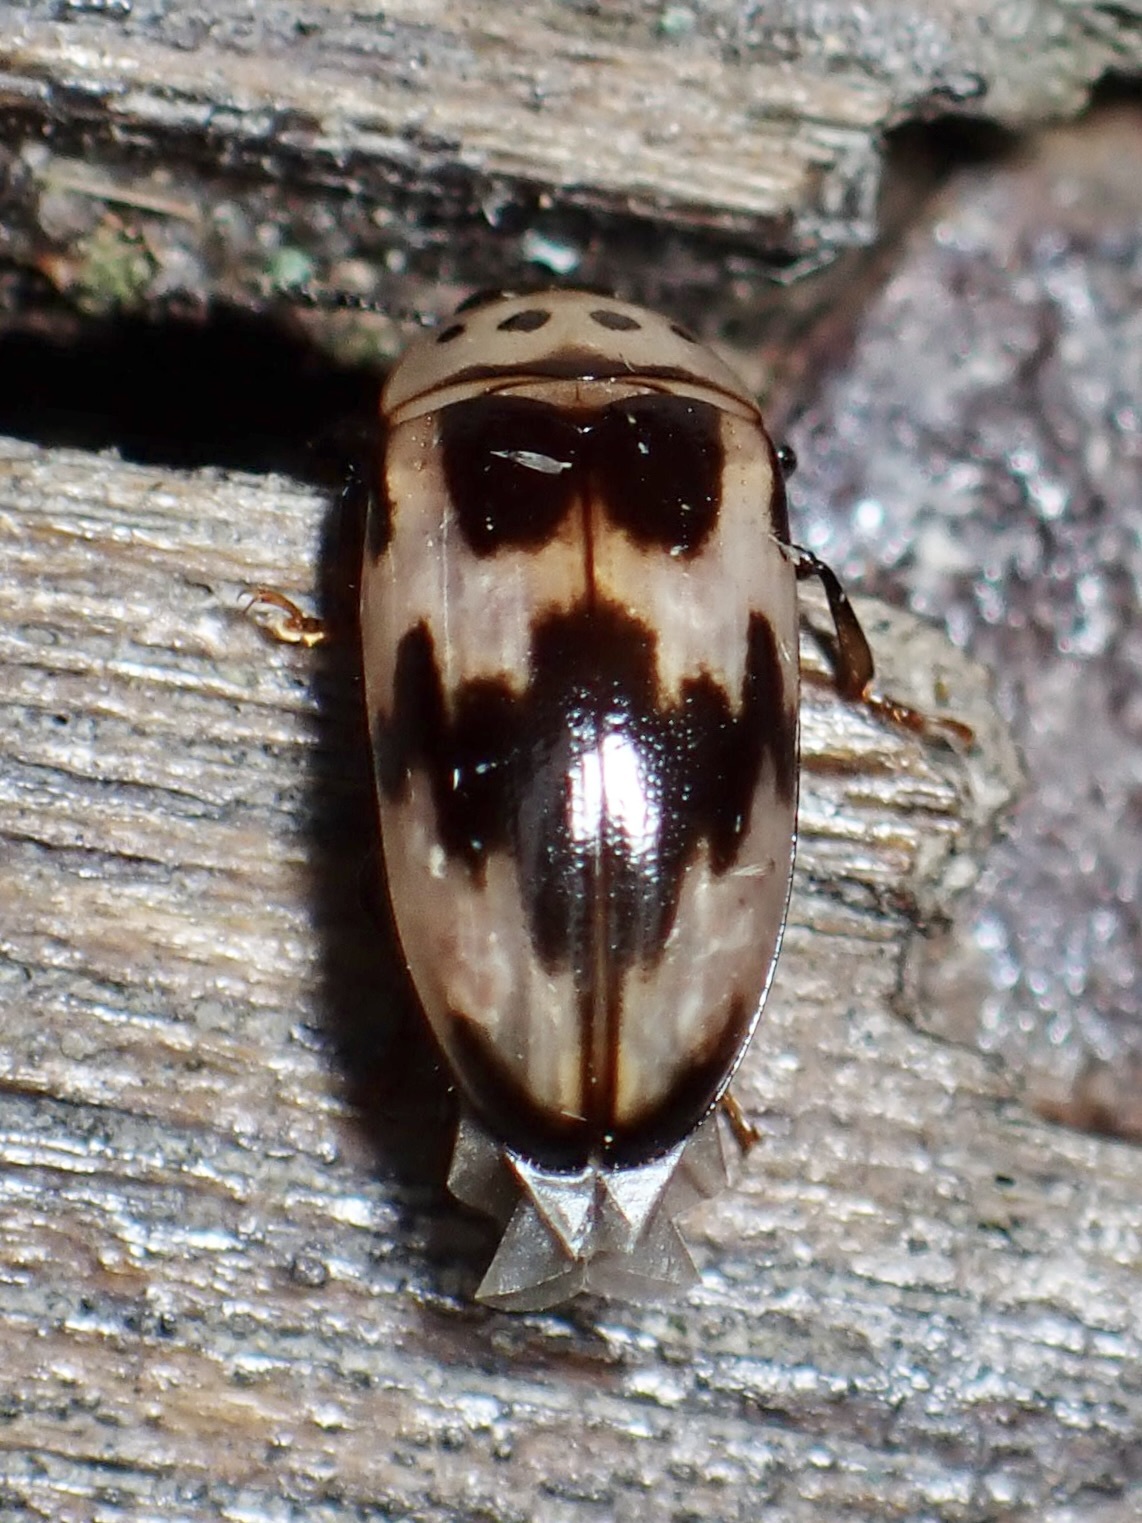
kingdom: Animalia
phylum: Arthropoda
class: Insecta
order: Coleoptera
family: Erotylidae
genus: Ischyrus
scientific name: Ischyrus quadripunctatus
